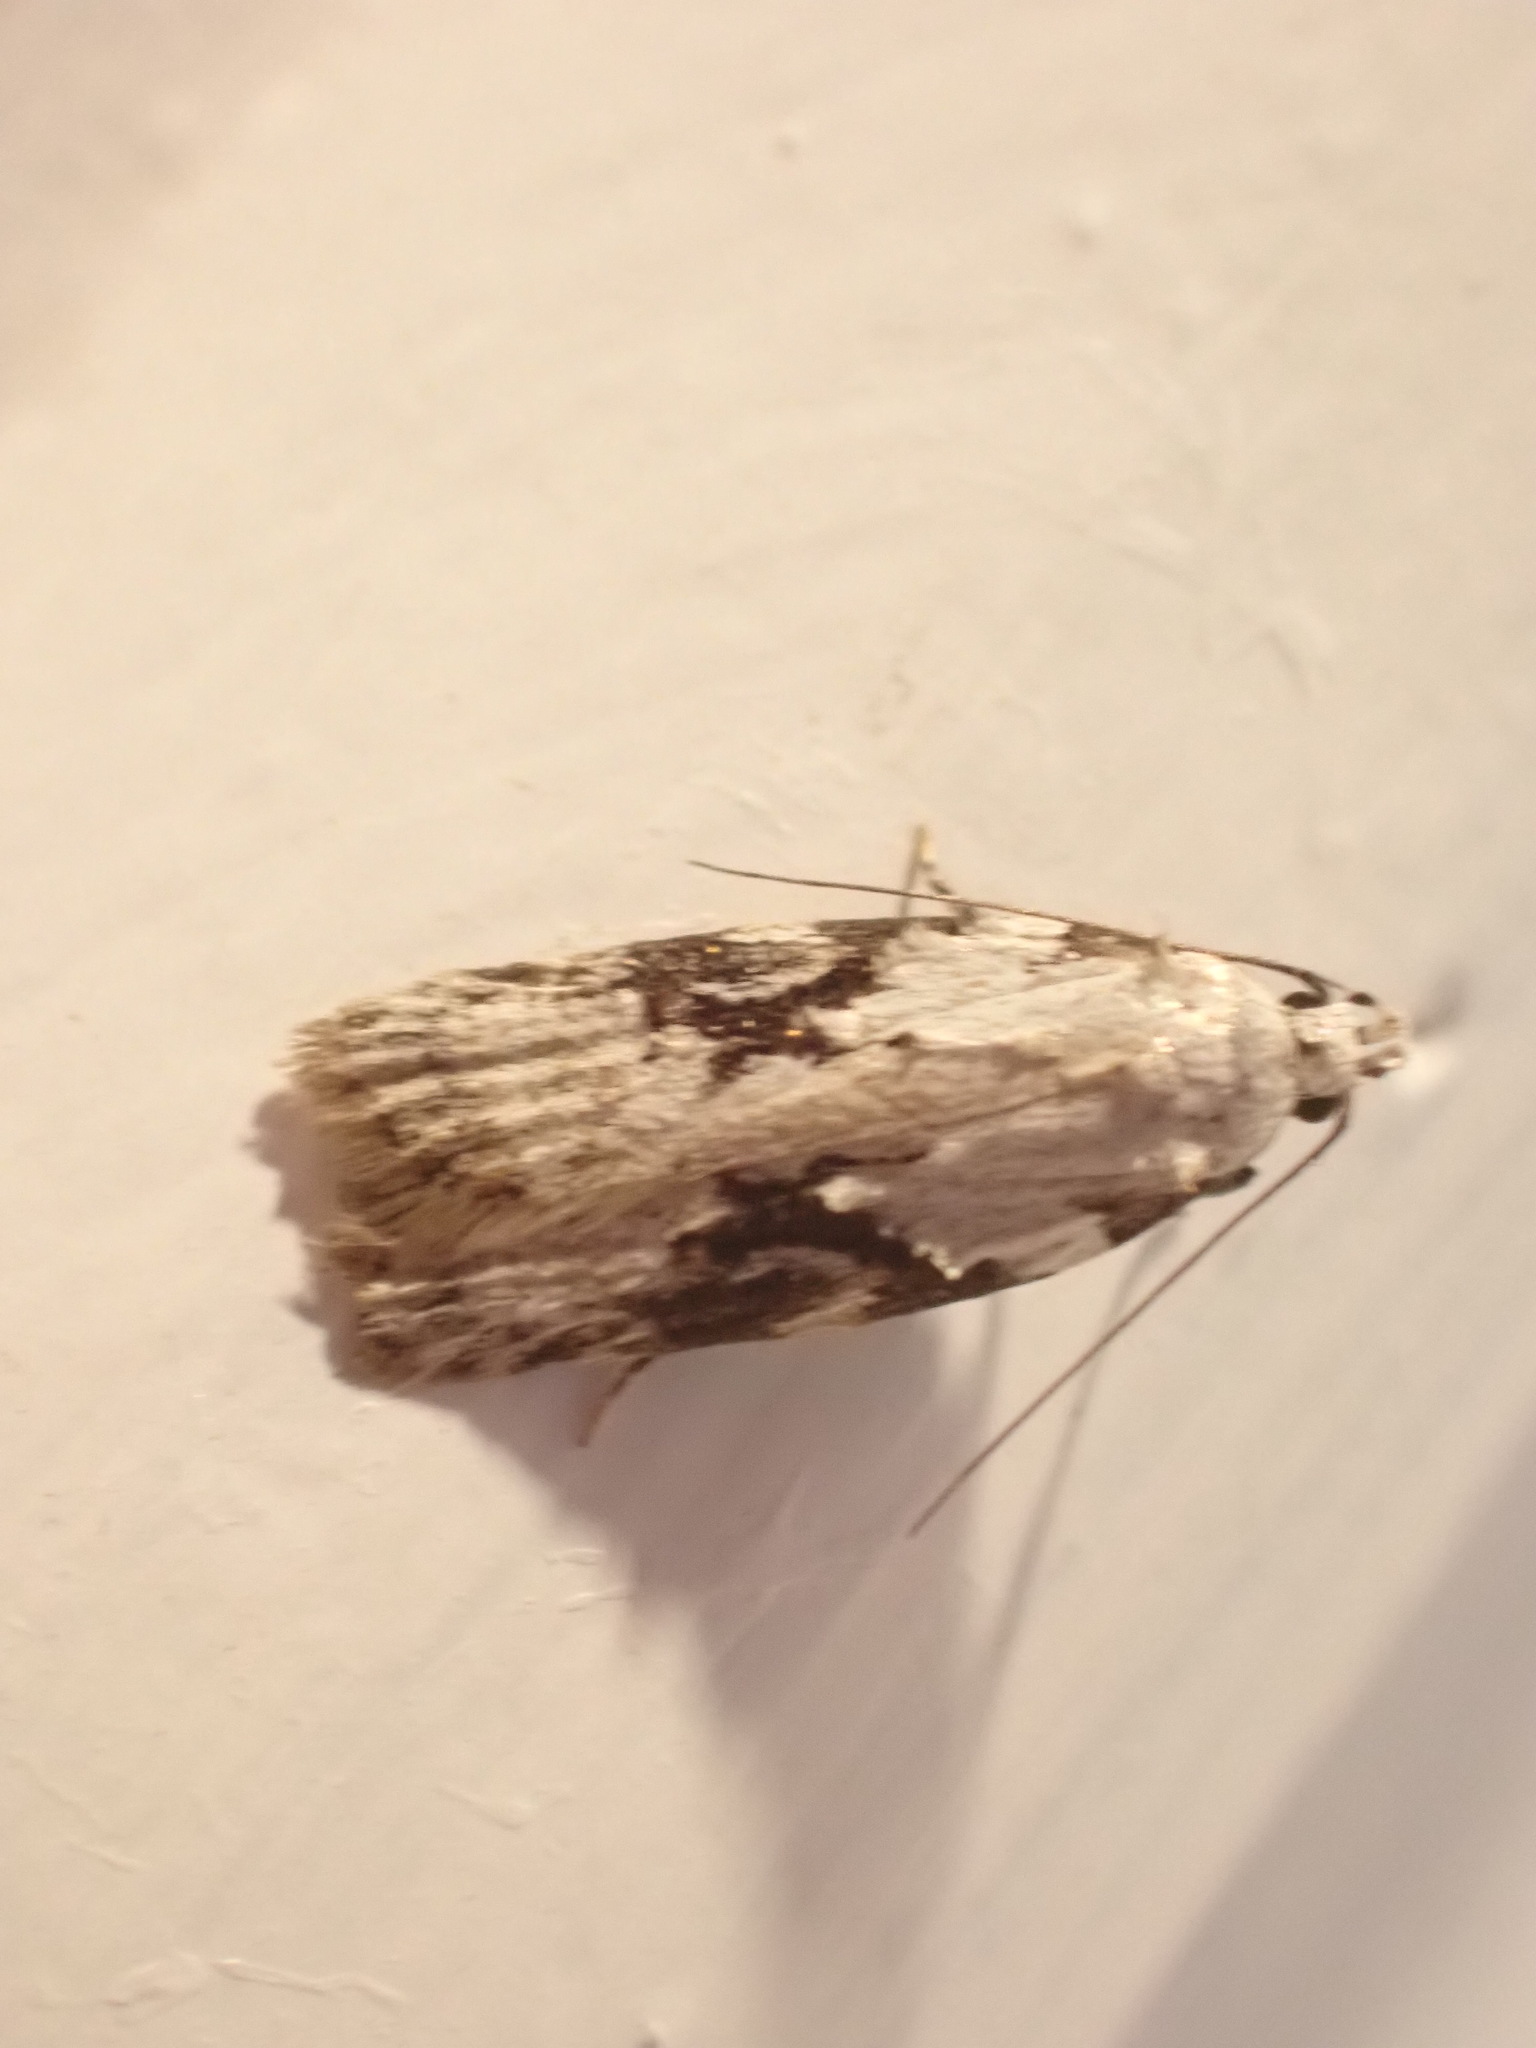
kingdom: Animalia
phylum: Arthropoda
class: Insecta
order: Lepidoptera
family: Oecophoridae
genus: Izatha
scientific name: Izatha mesoschista
